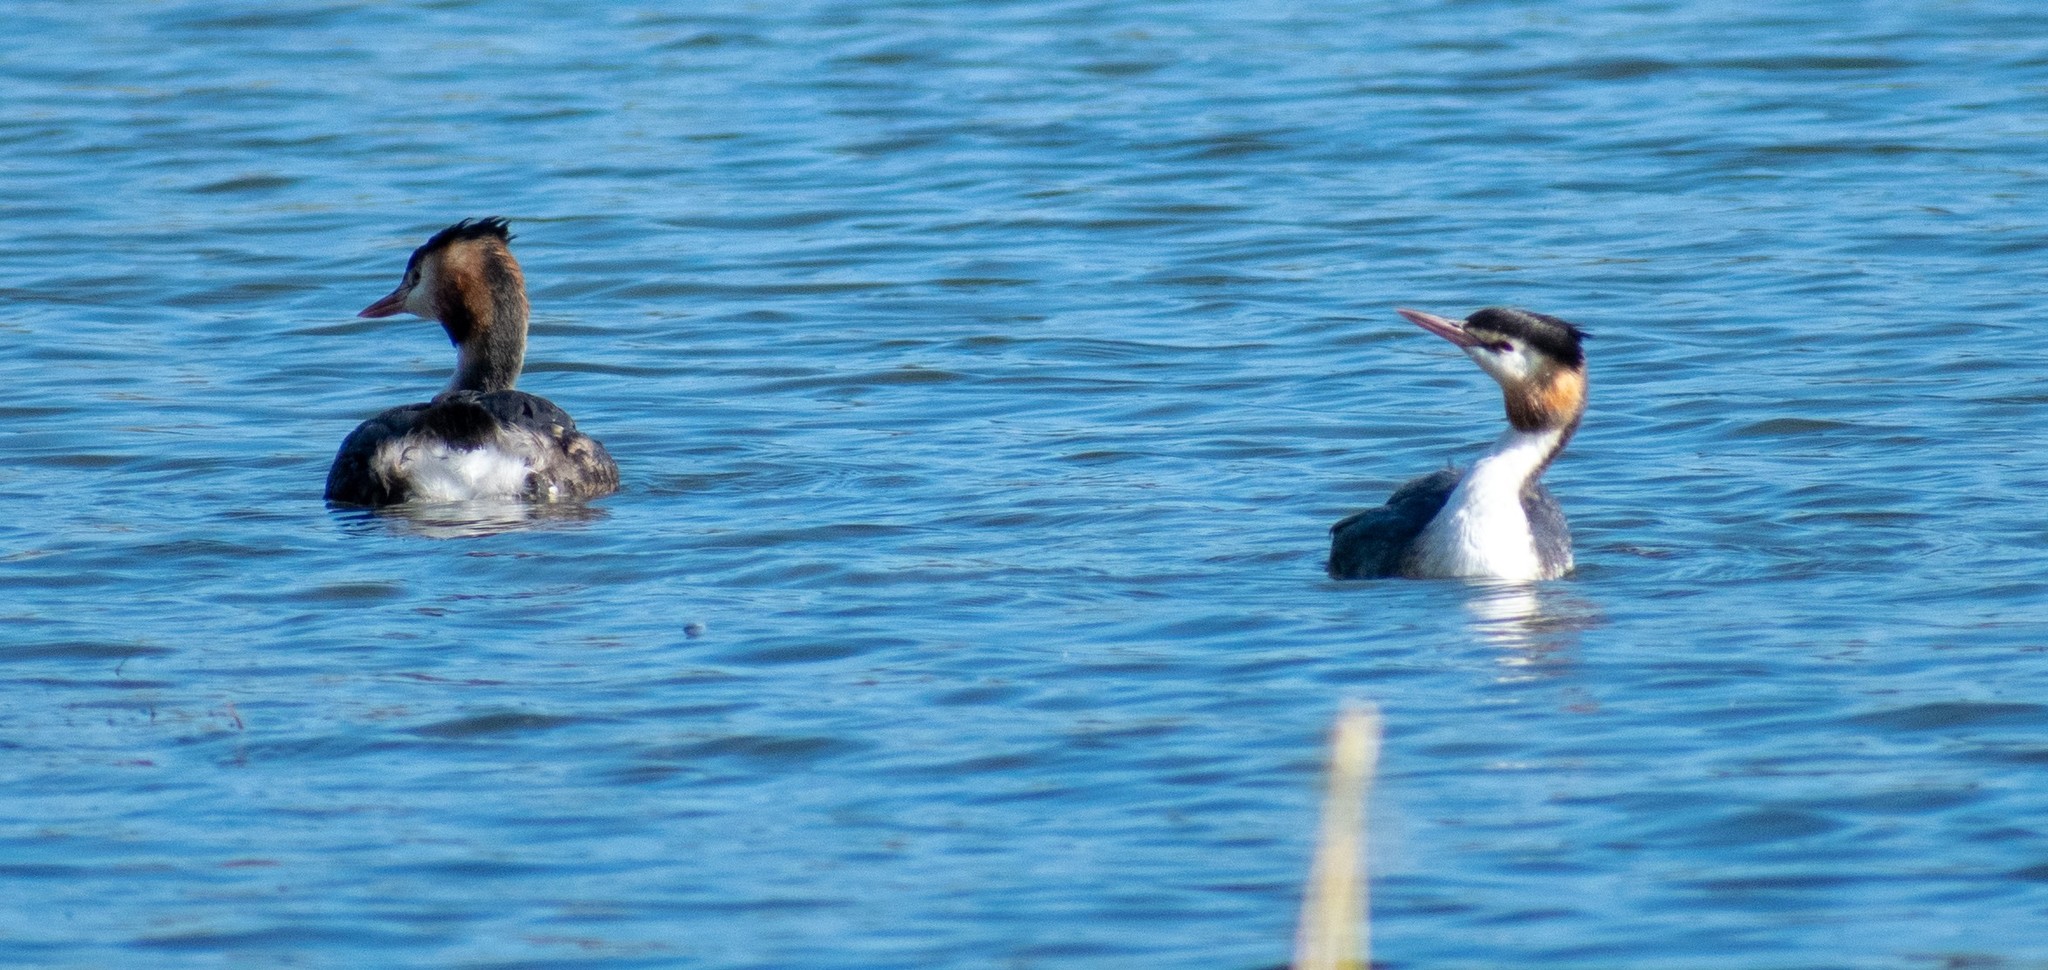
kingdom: Animalia
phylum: Chordata
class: Aves
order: Podicipediformes
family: Podicipedidae
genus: Podiceps
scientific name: Podiceps cristatus
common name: Great crested grebe
